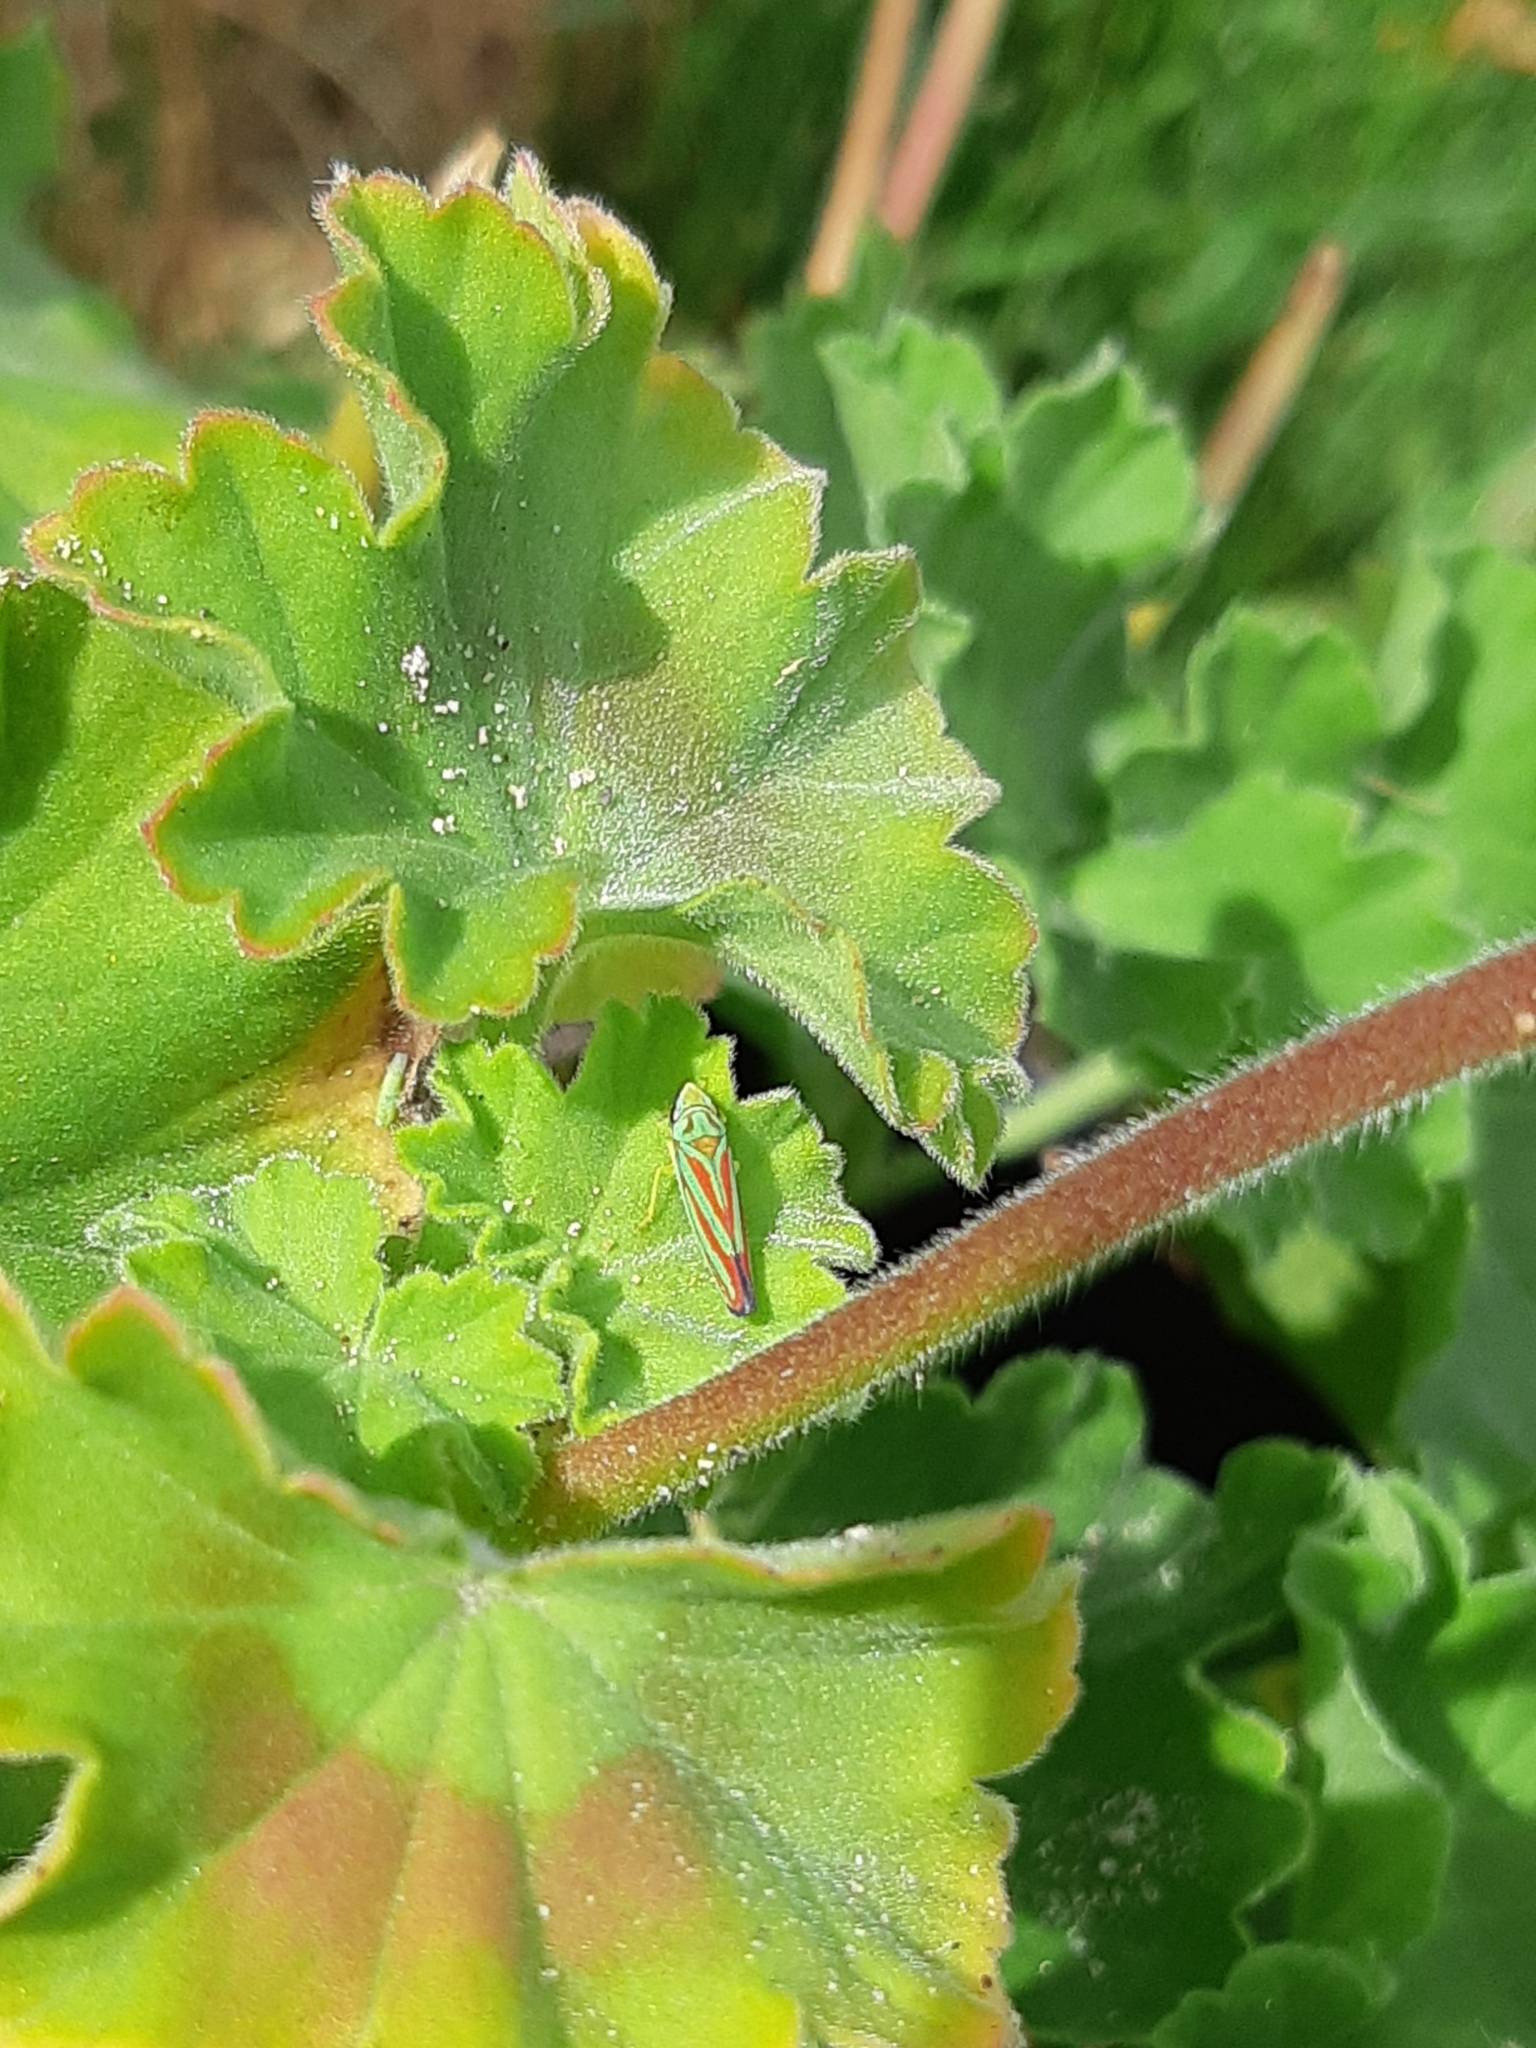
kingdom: Animalia
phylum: Arthropoda
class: Insecta
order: Hemiptera
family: Cicadellidae
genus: Graphocephala
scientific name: Graphocephala coccinea
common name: Candy-striped leafhopper
